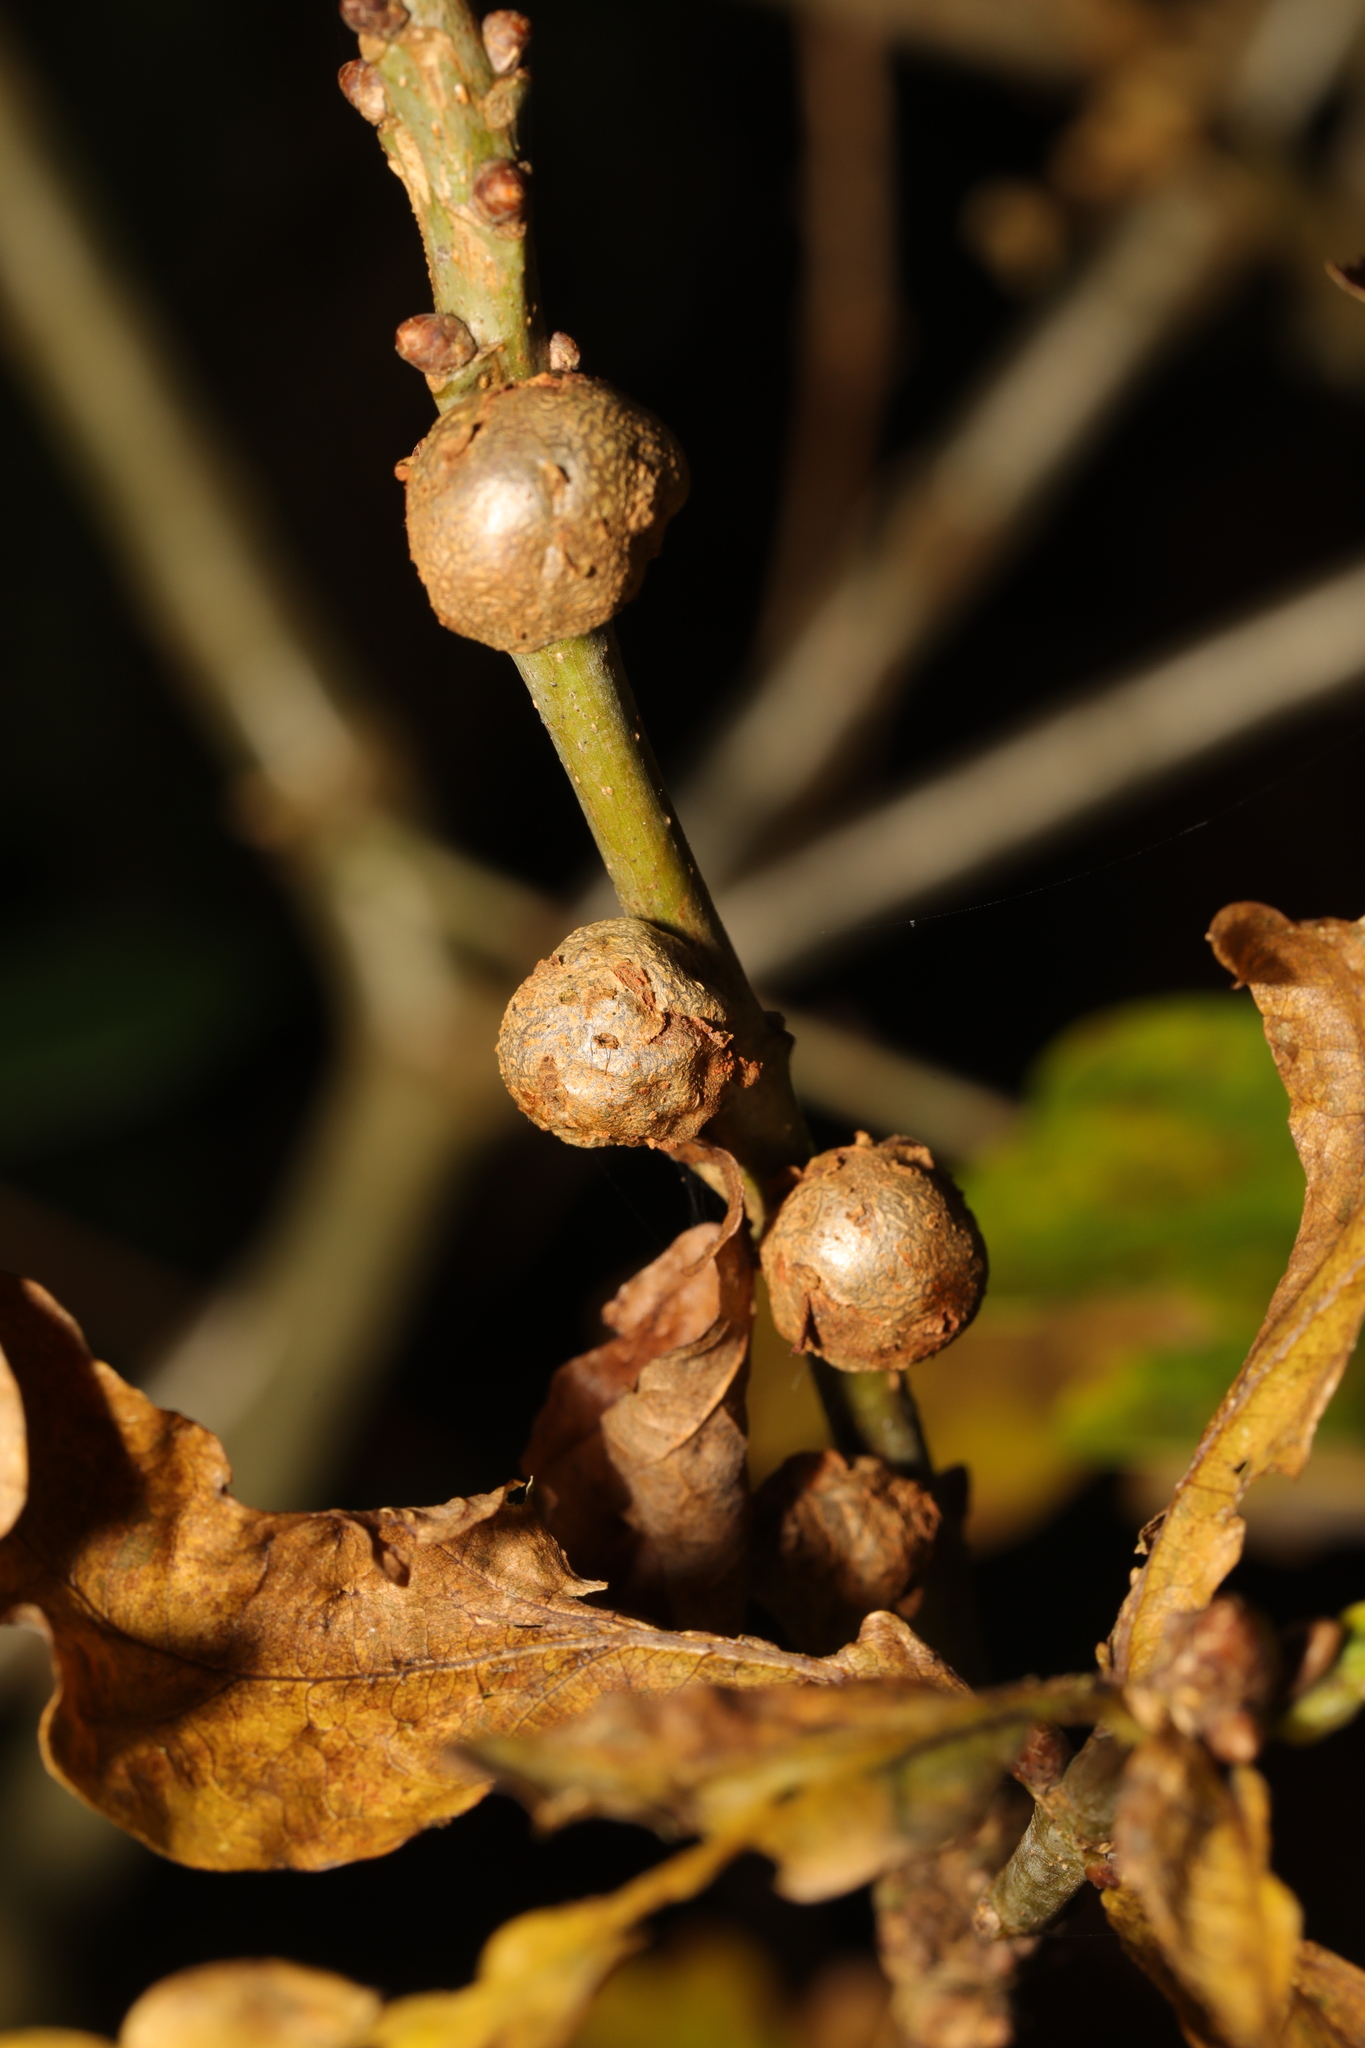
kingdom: Animalia
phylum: Arthropoda
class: Insecta
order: Hymenoptera
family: Cynipidae
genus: Andricus
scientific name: Andricus lignicolus
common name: Cola-nut gall
